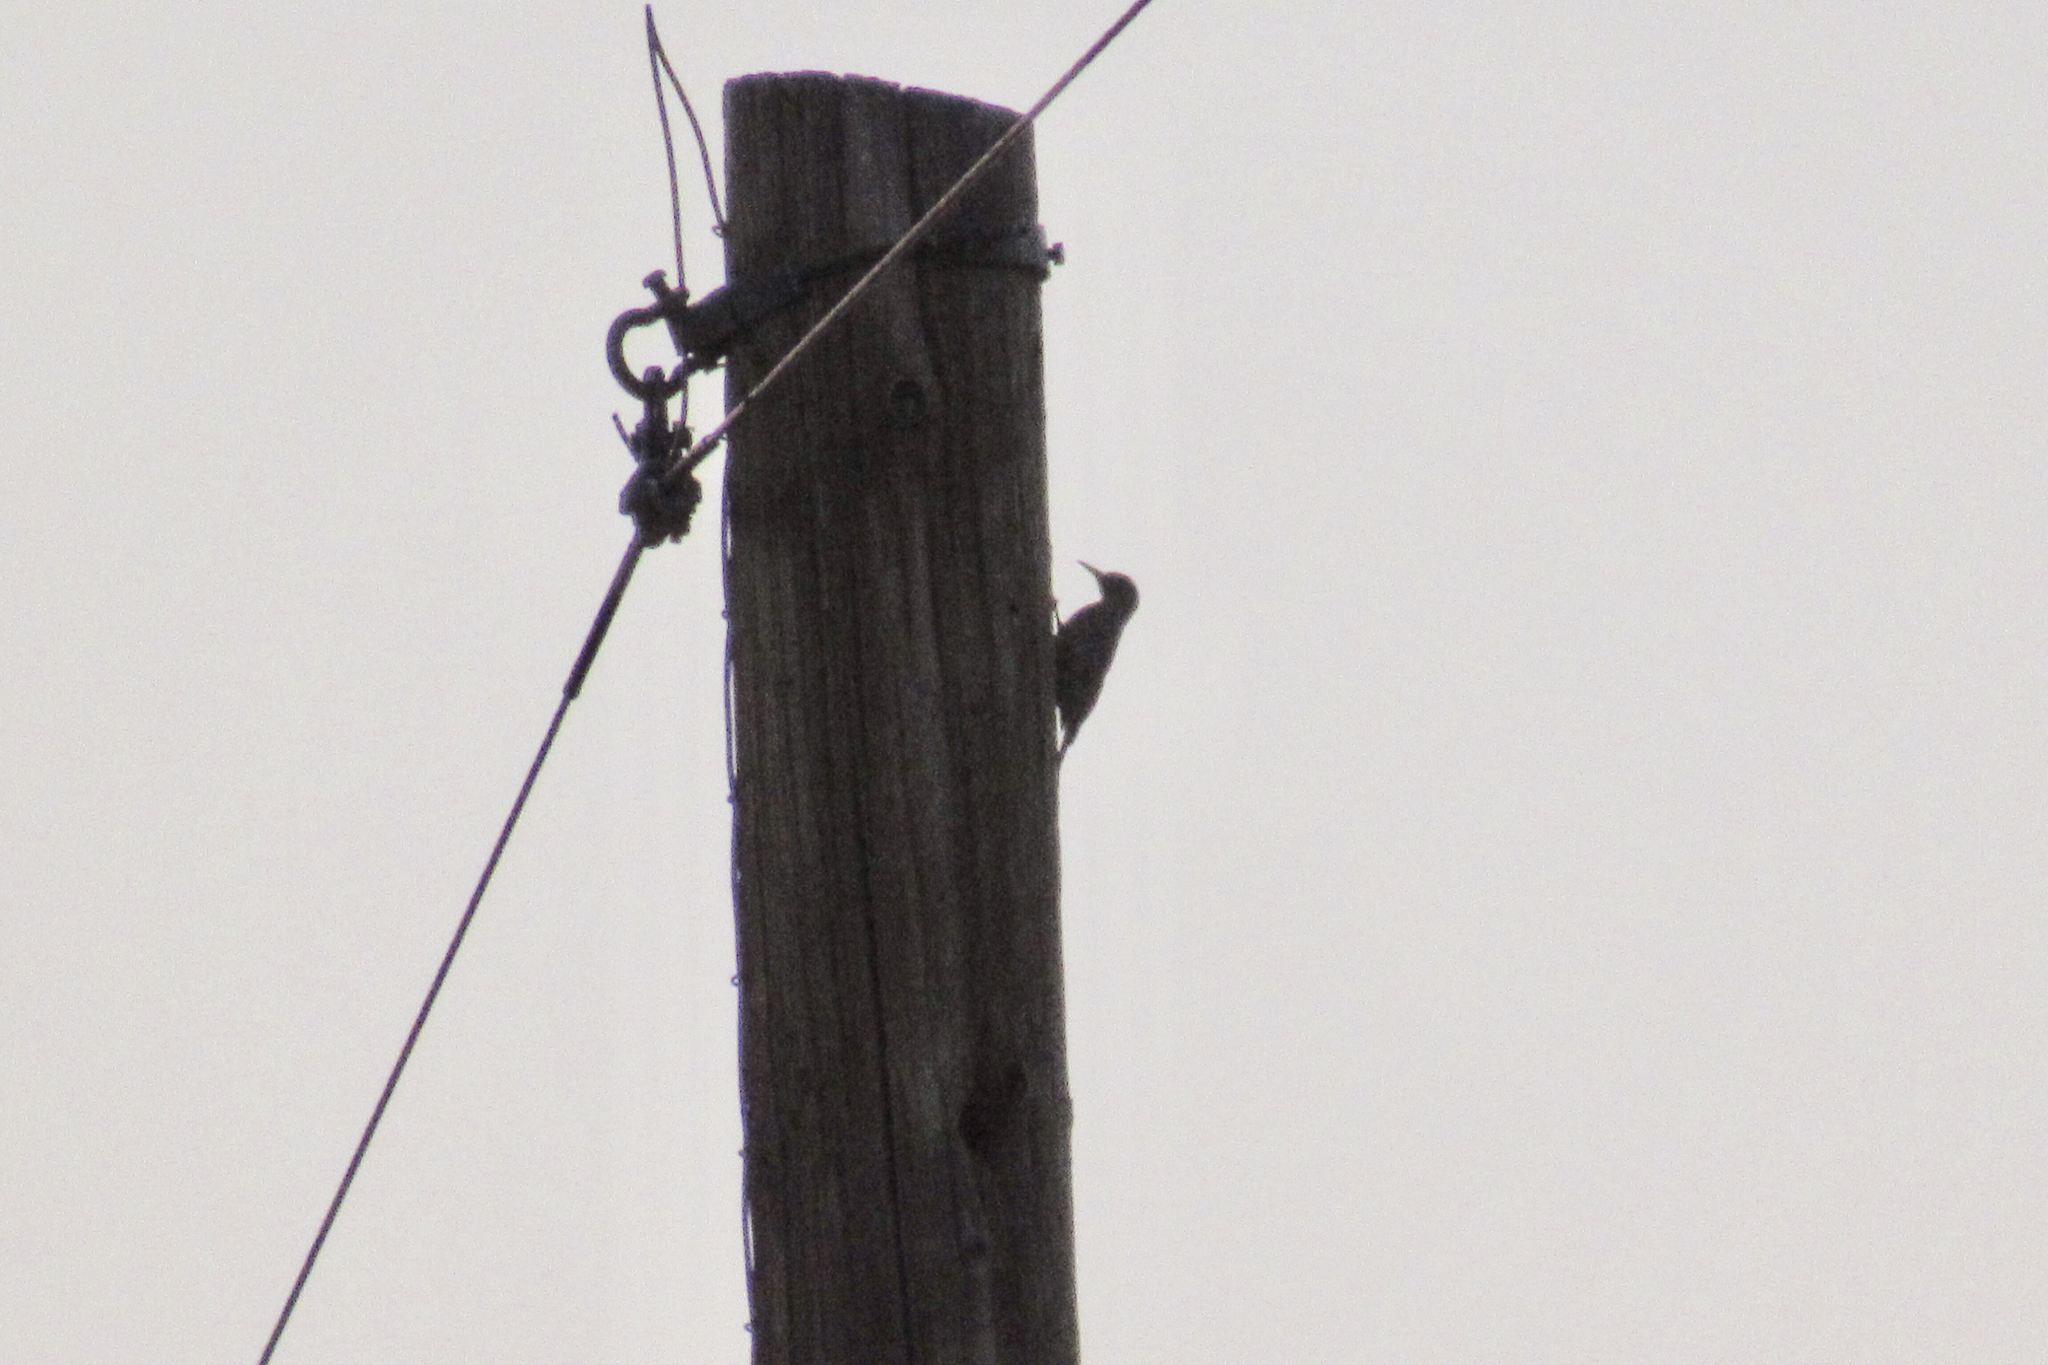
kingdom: Animalia
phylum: Chordata
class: Aves
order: Piciformes
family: Picidae
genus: Melanerpes
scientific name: Melanerpes uropygialis
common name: Gila woodpecker
